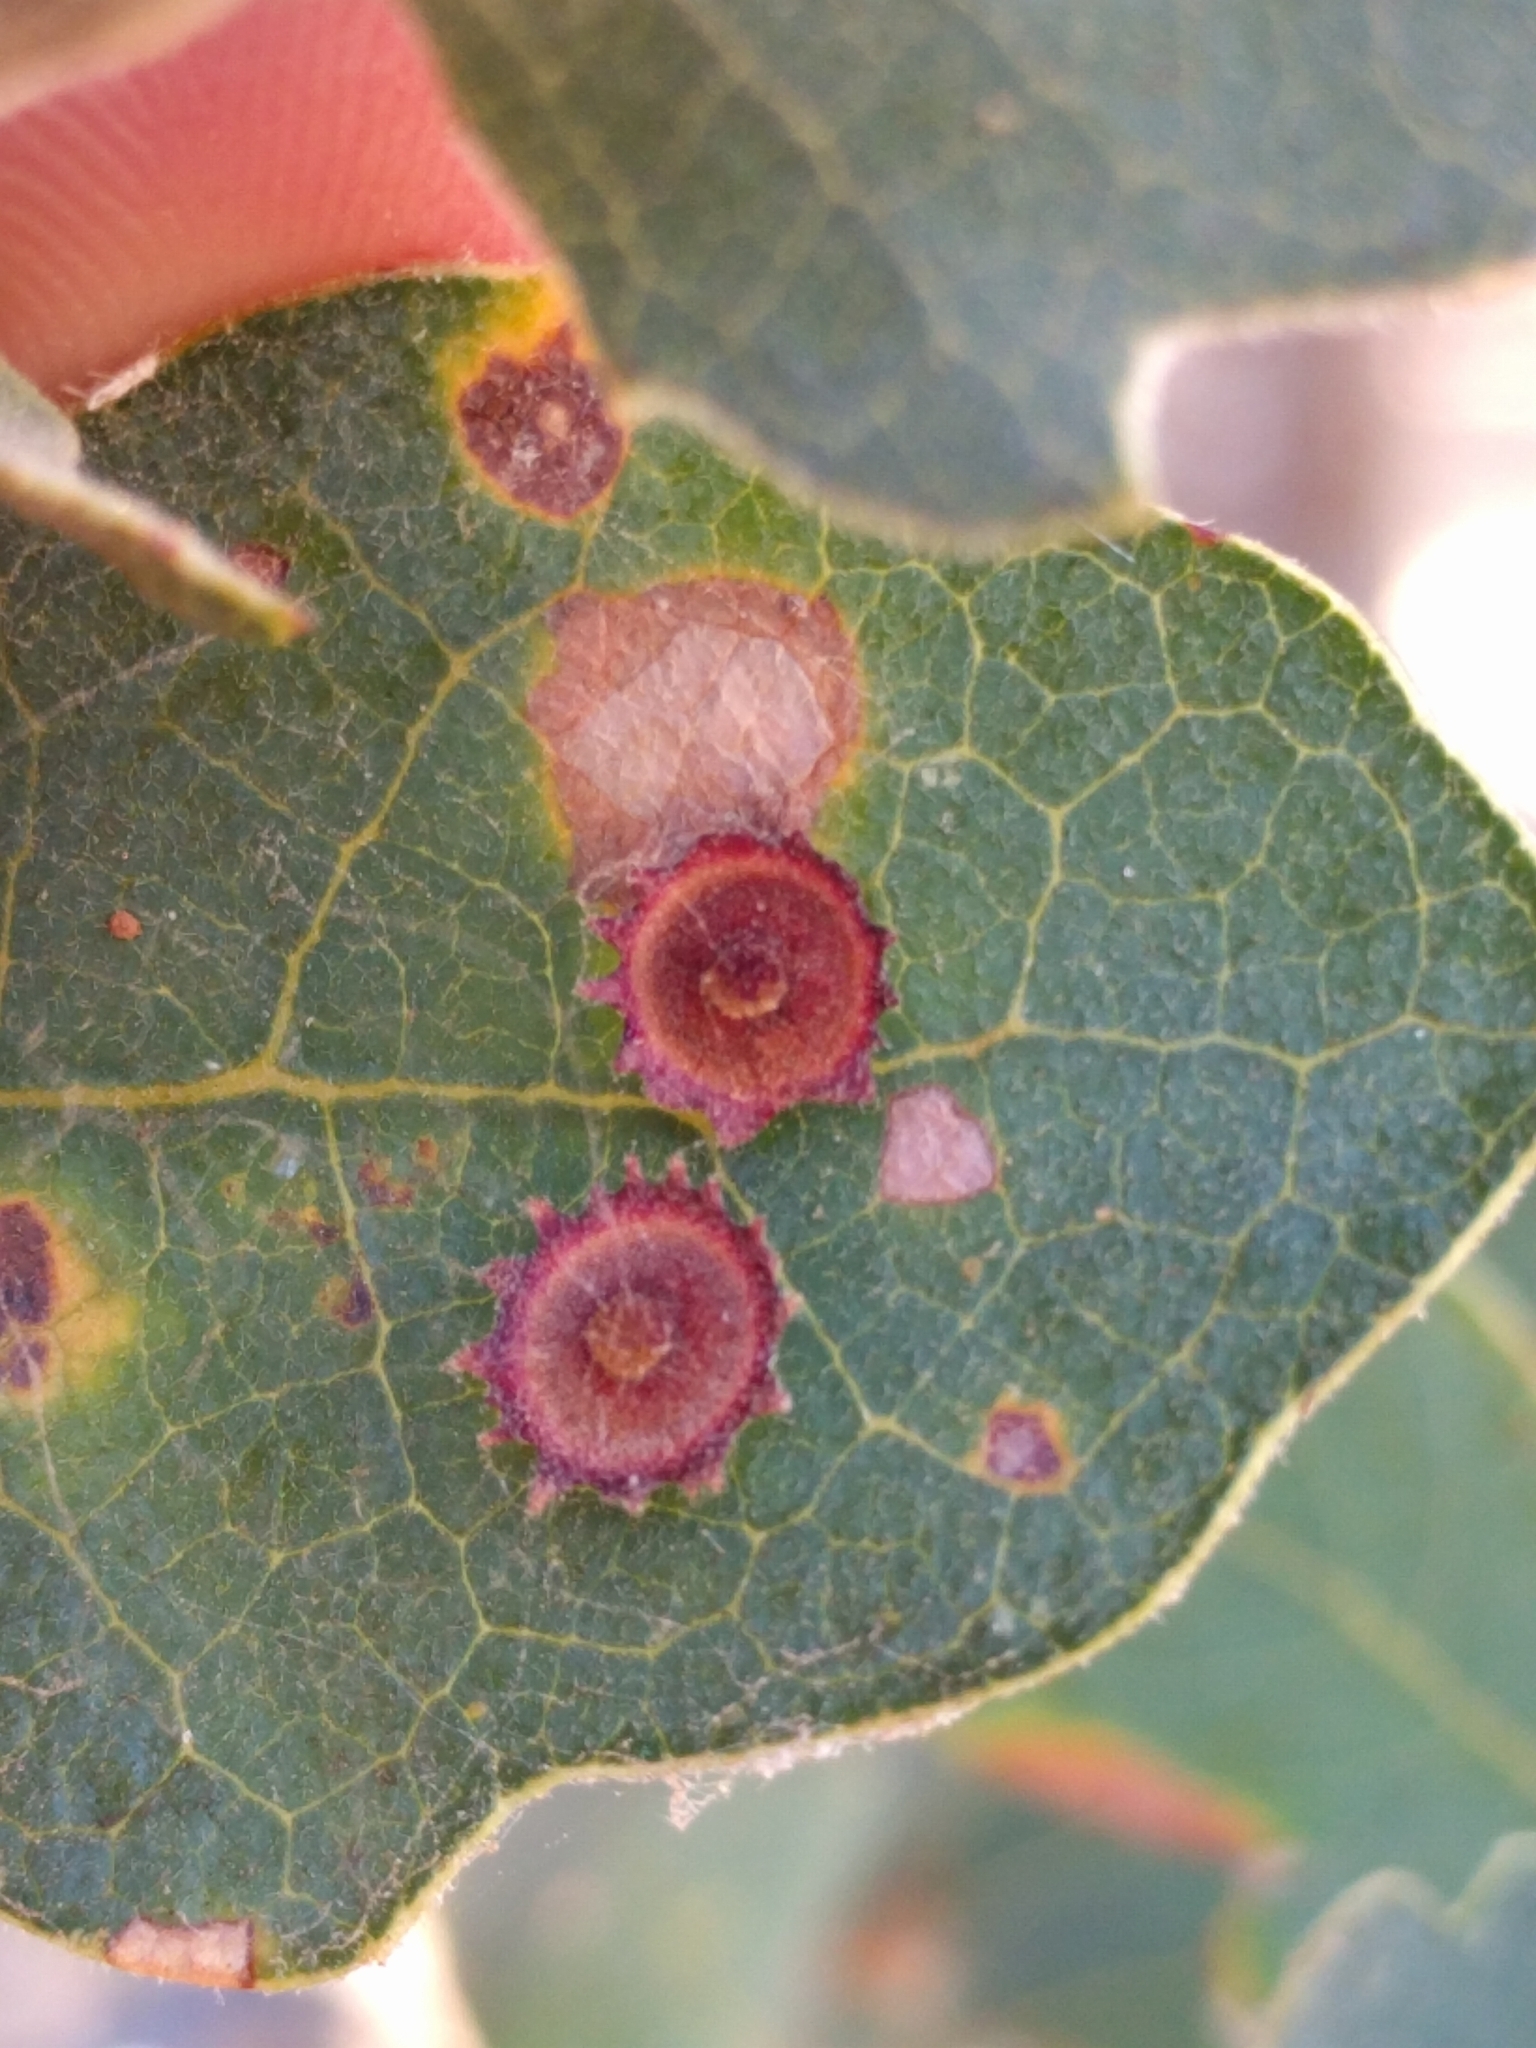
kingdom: Animalia
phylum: Arthropoda
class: Insecta
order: Hymenoptera
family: Cynipidae
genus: Andricus
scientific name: Andricus
